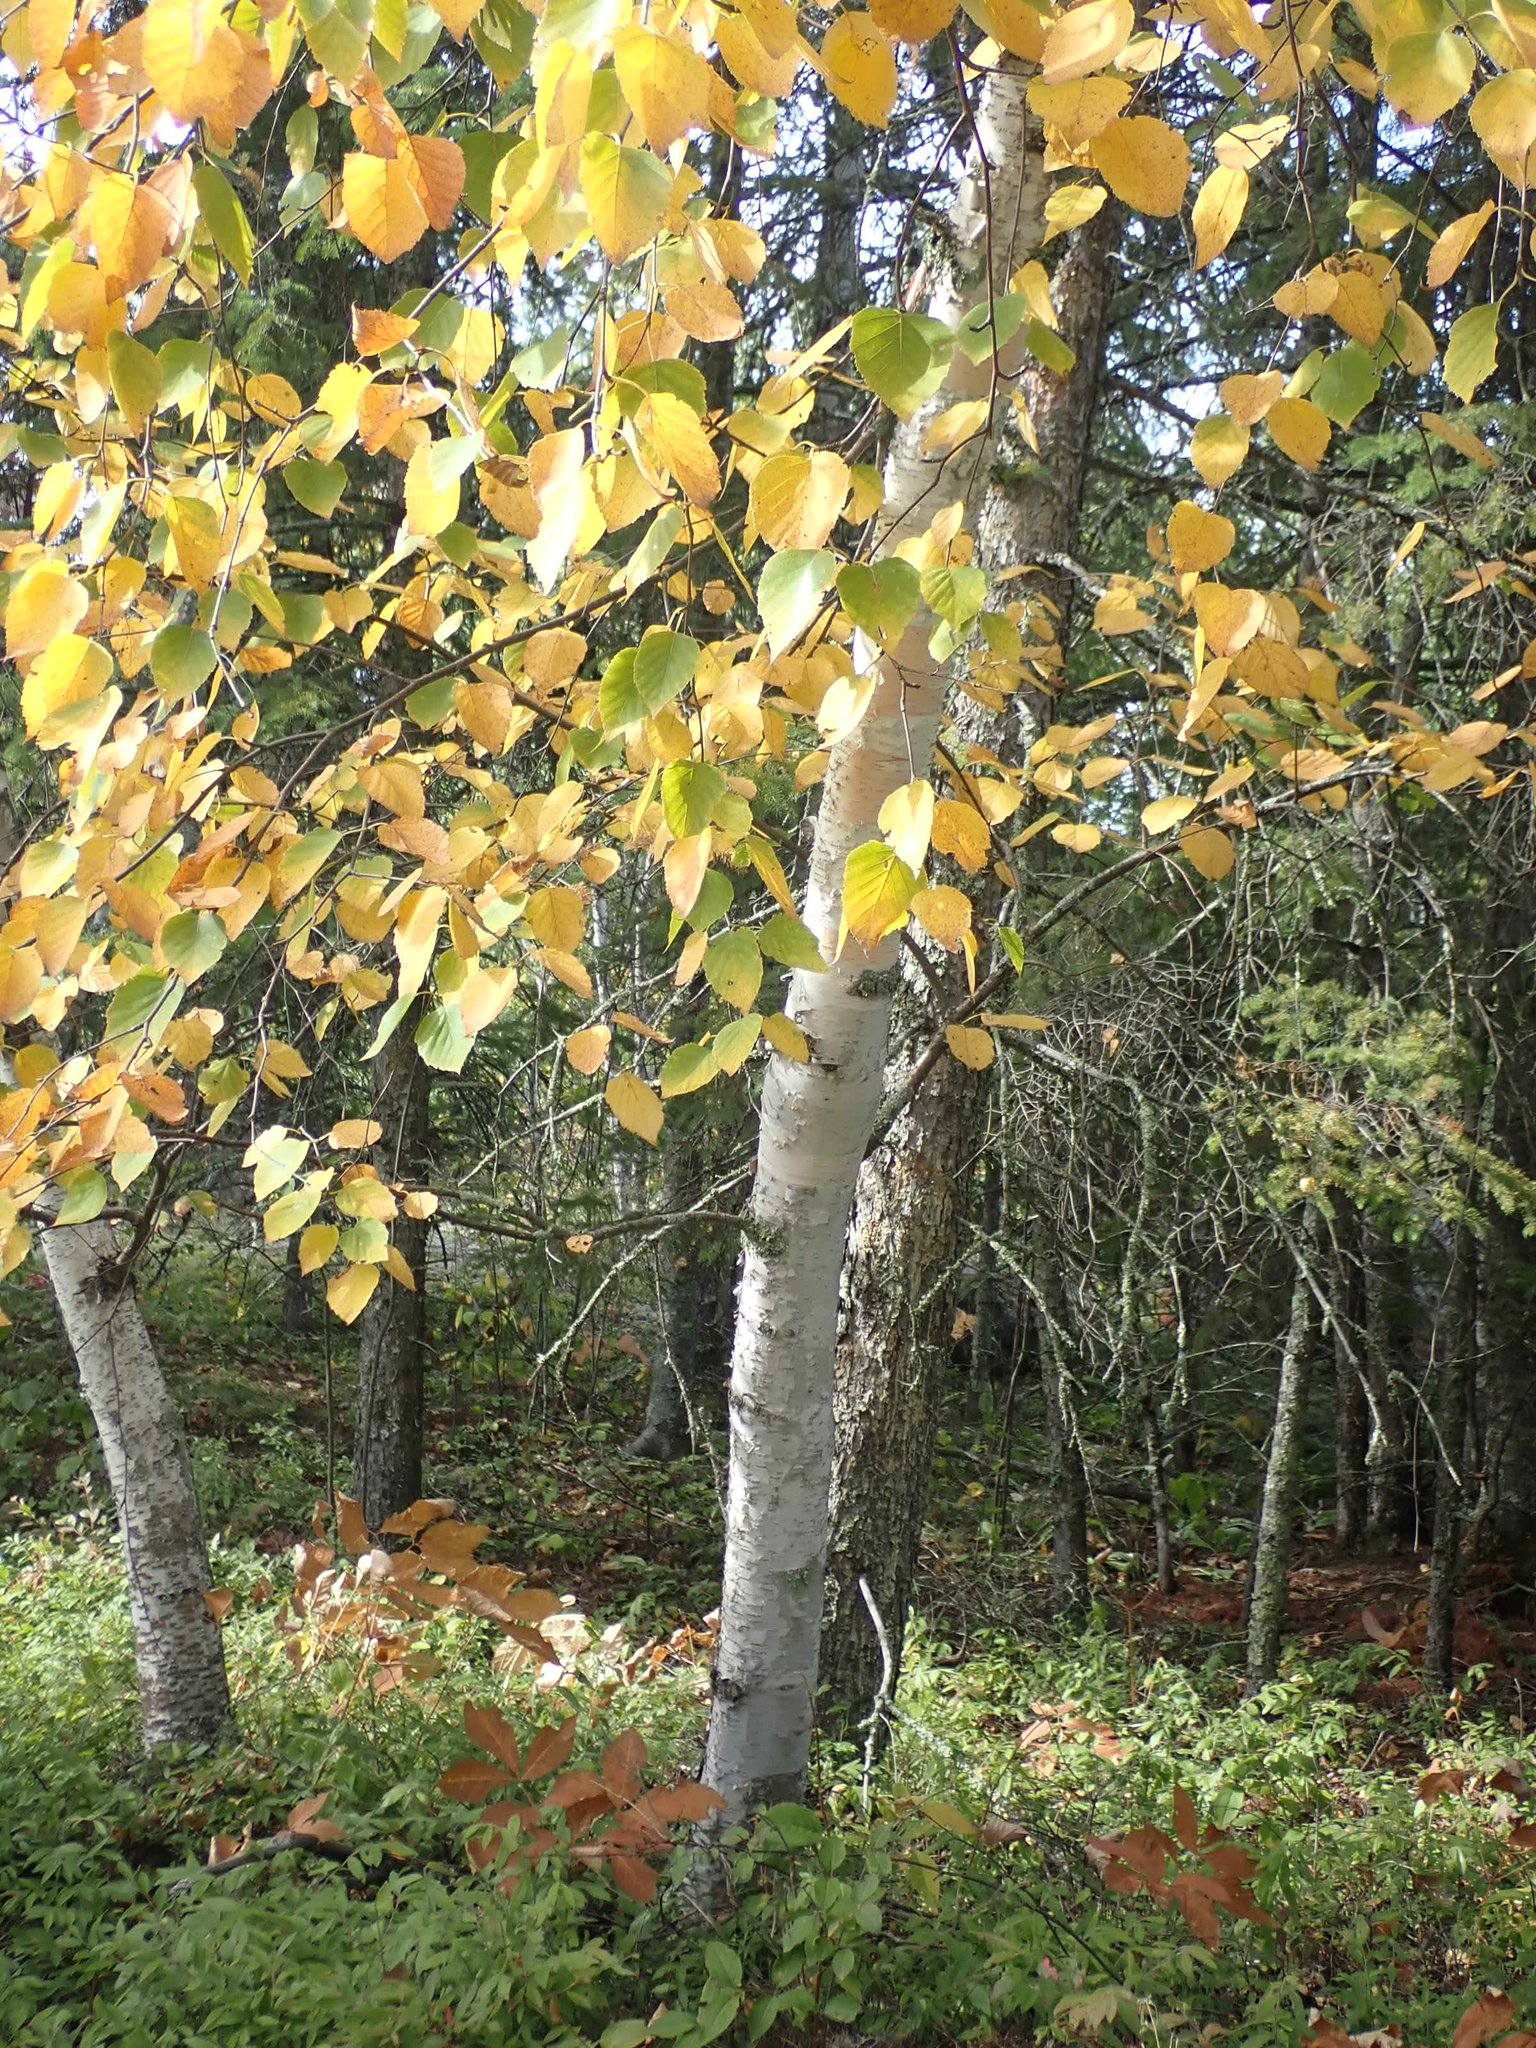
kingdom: Plantae
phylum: Tracheophyta
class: Magnoliopsida
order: Fagales
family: Betulaceae
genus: Betula
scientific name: Betula papyrifera
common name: Paper birch
